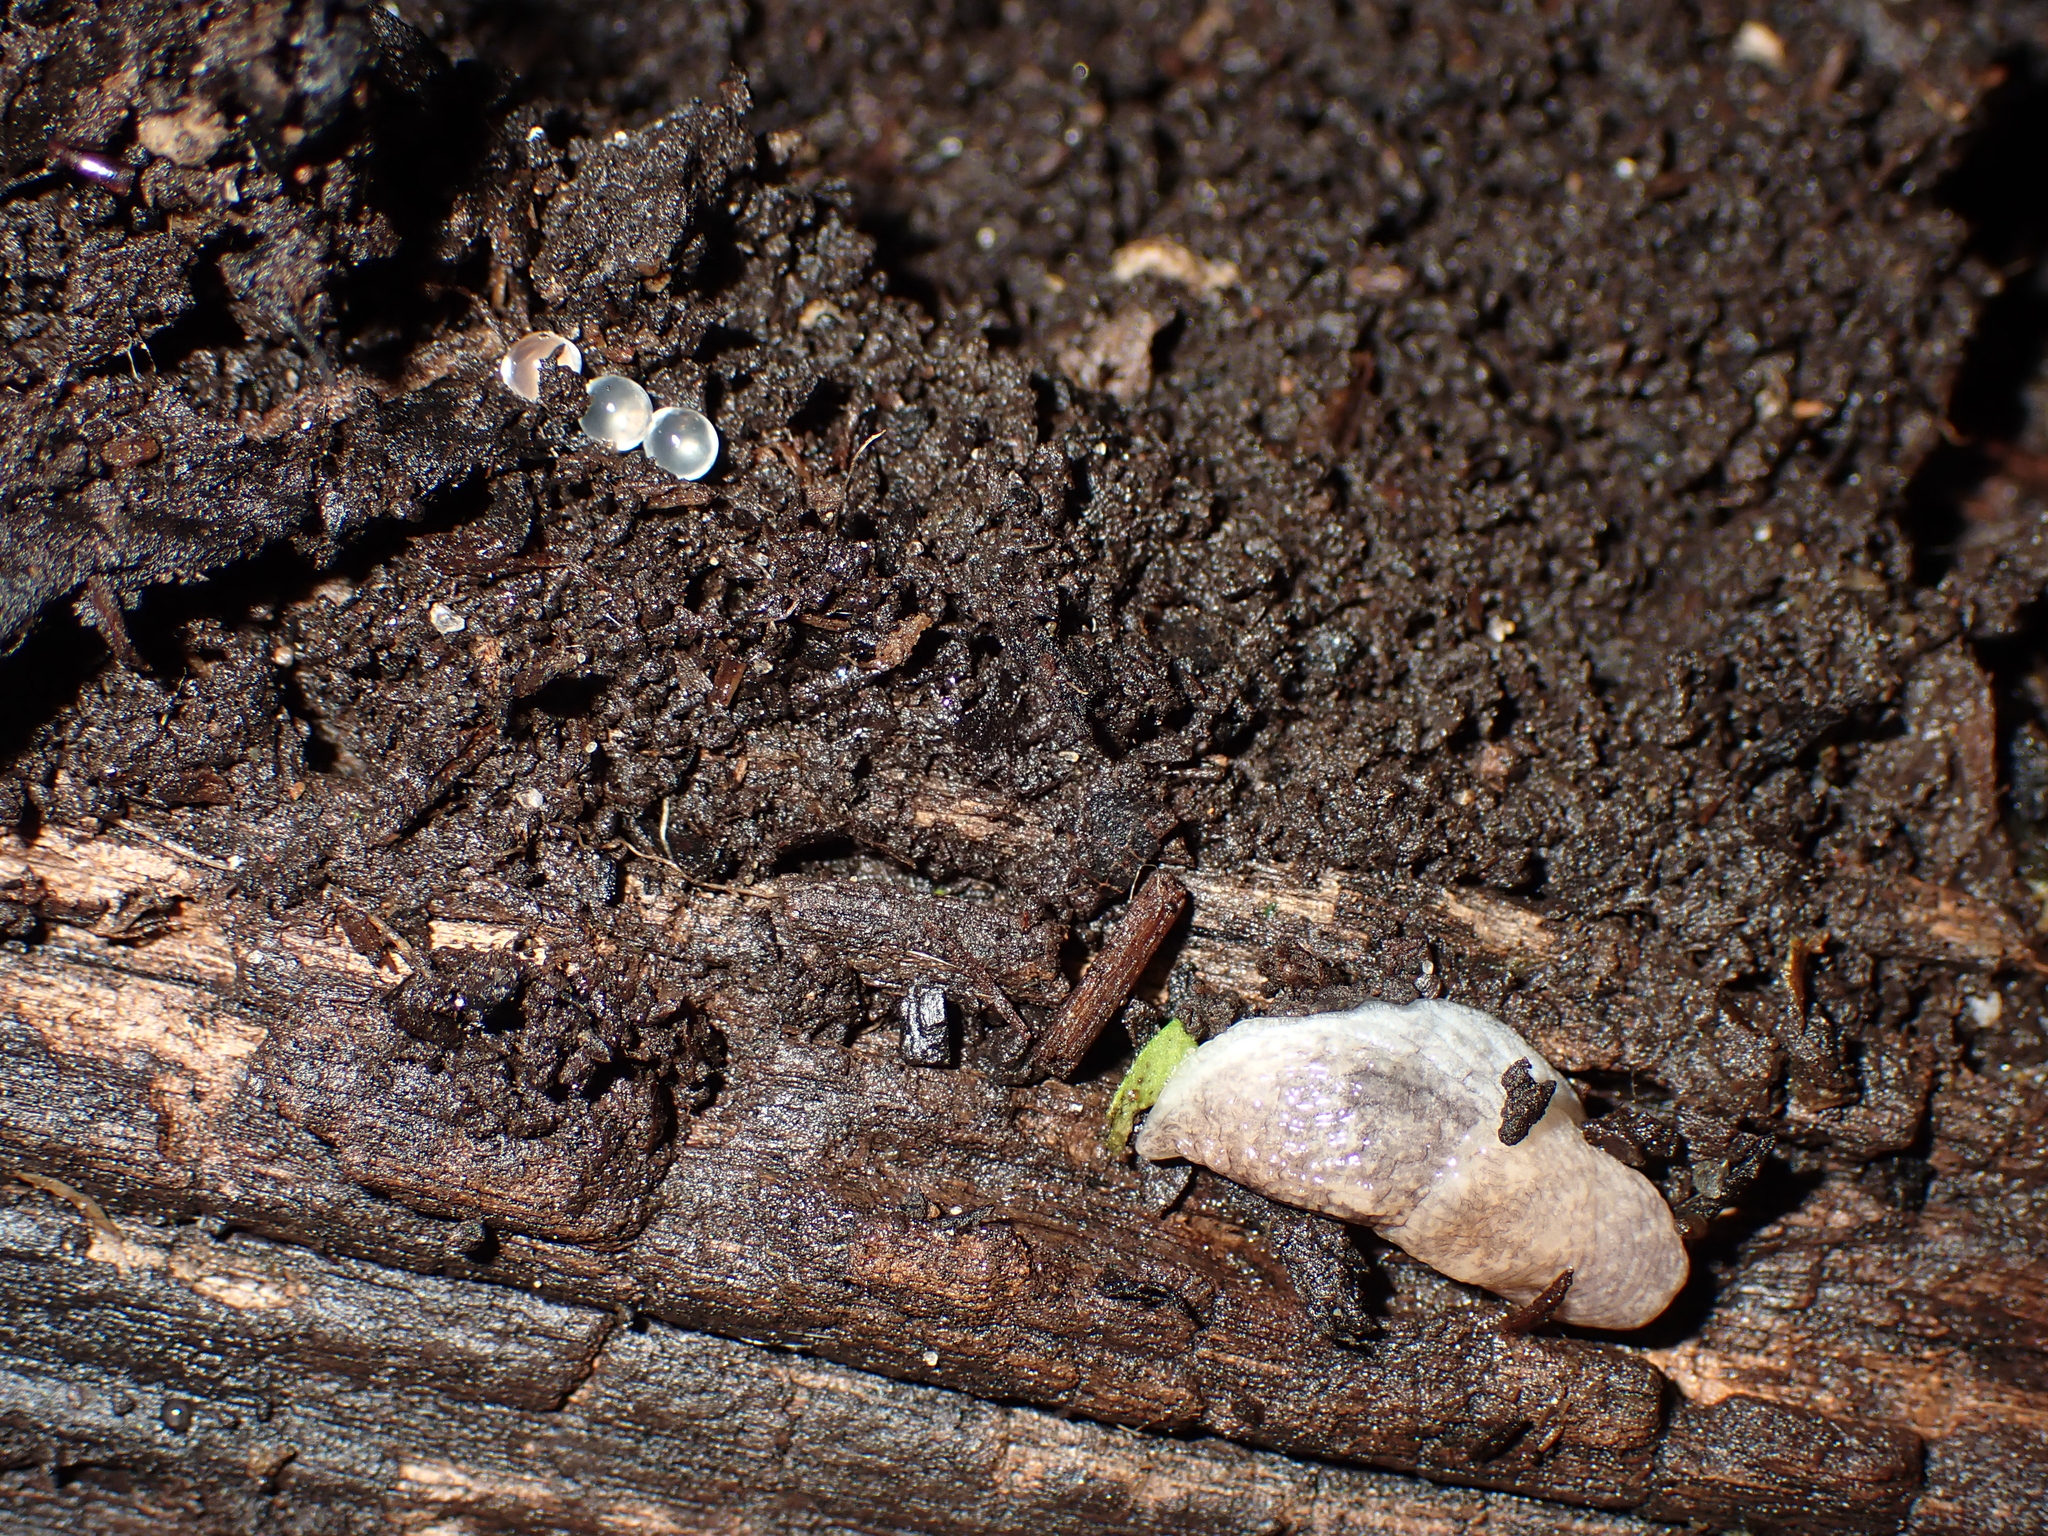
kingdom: Animalia
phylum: Mollusca
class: Gastropoda
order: Stylommatophora
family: Agriolimacidae
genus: Deroceras
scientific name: Deroceras reticulatum
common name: Gray field slug
